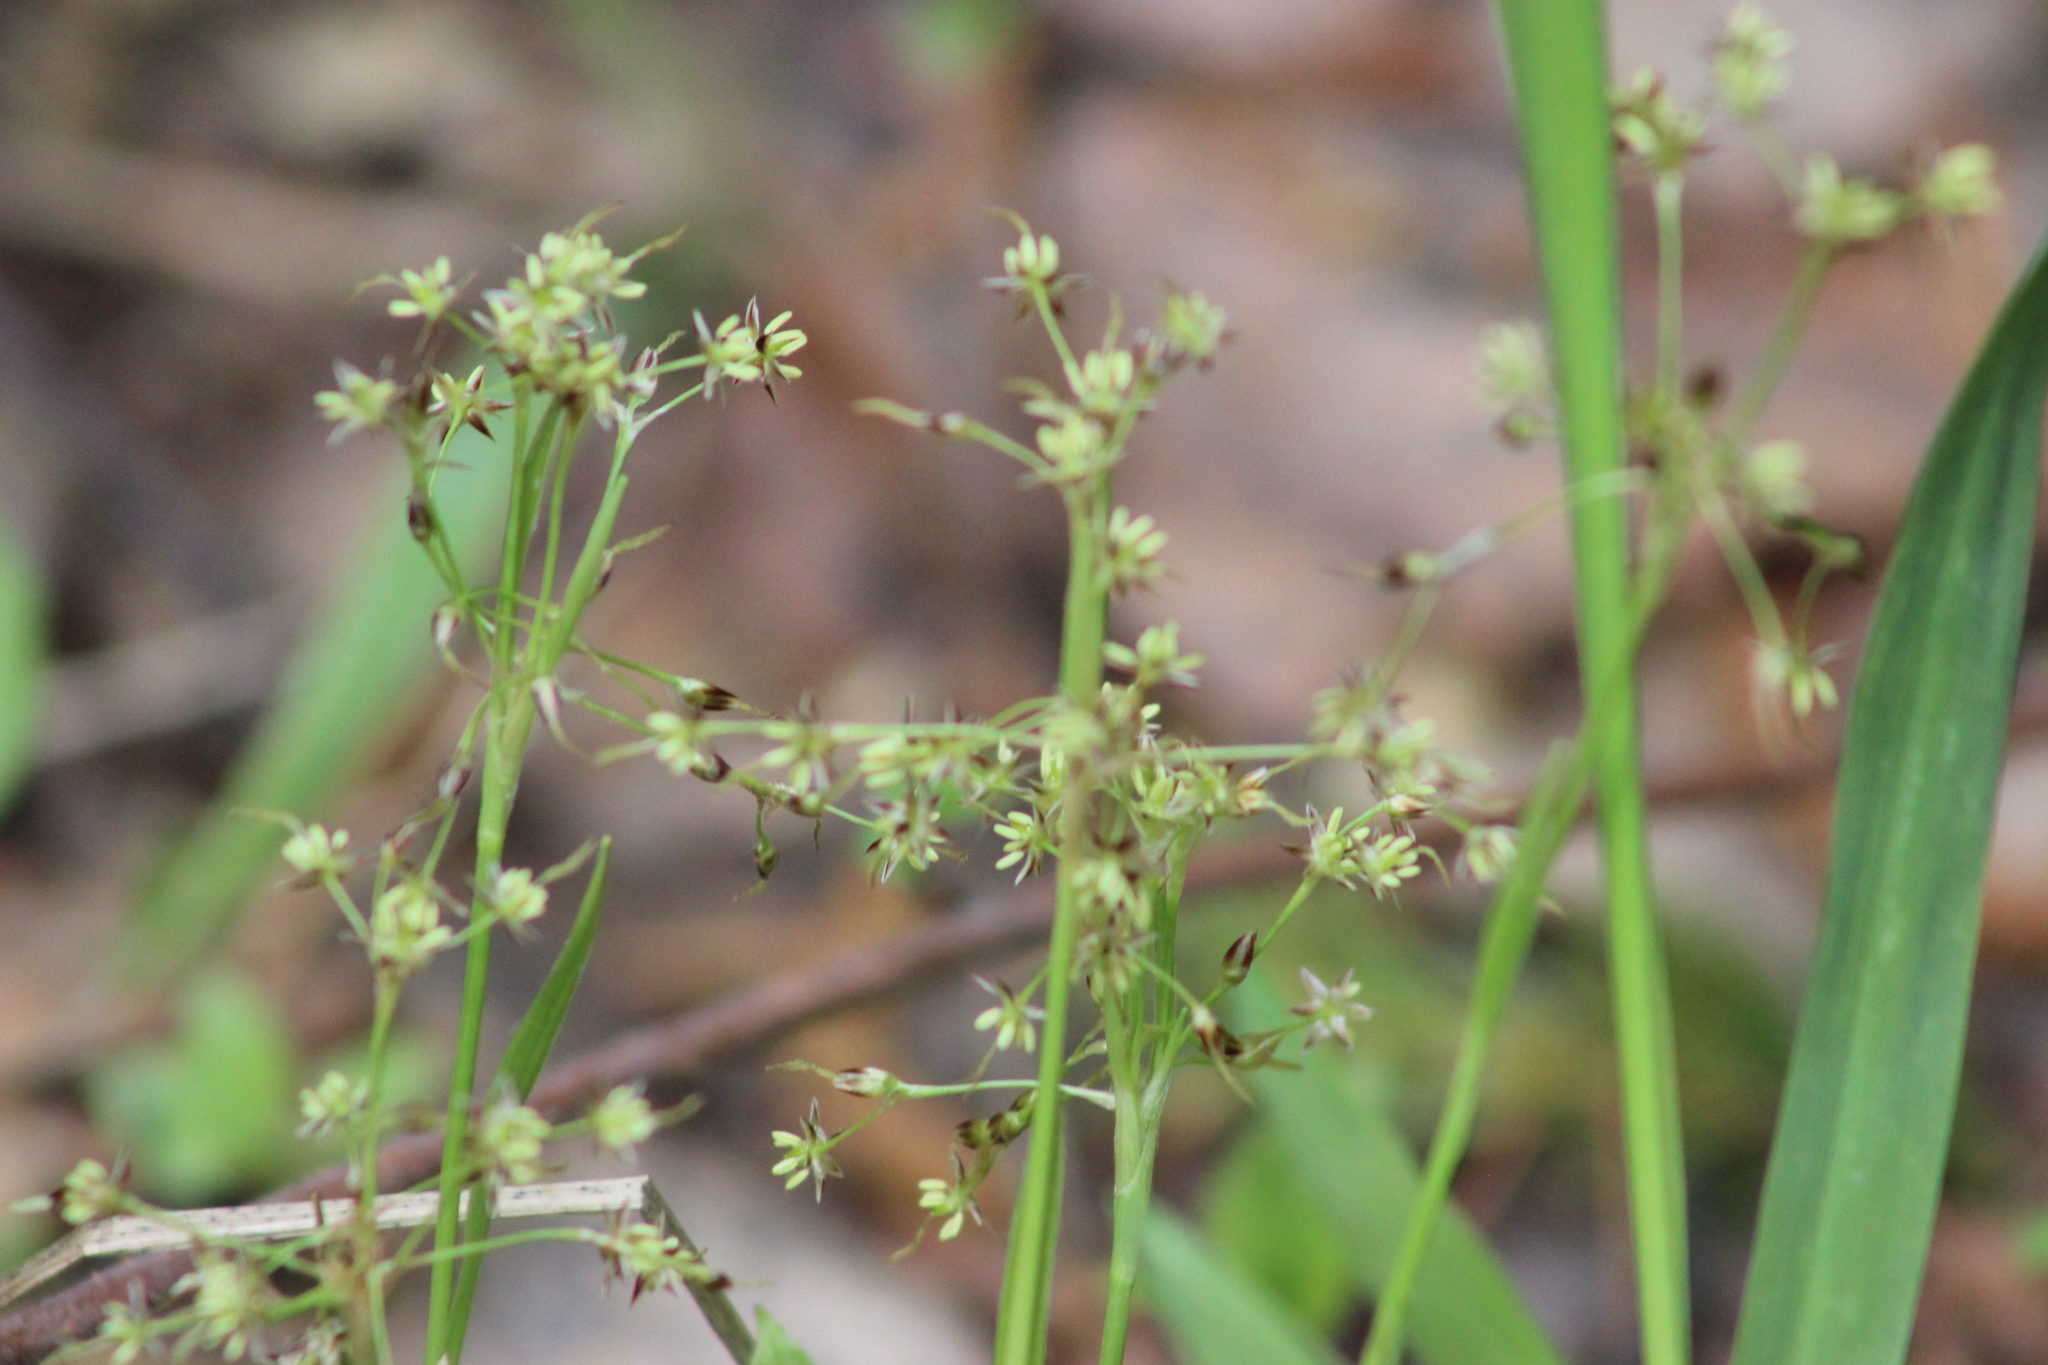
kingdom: Plantae
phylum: Tracheophyta
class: Liliopsida
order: Poales
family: Juncaceae
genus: Luzula
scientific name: Luzula pilosa
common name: Hairy wood-rush
